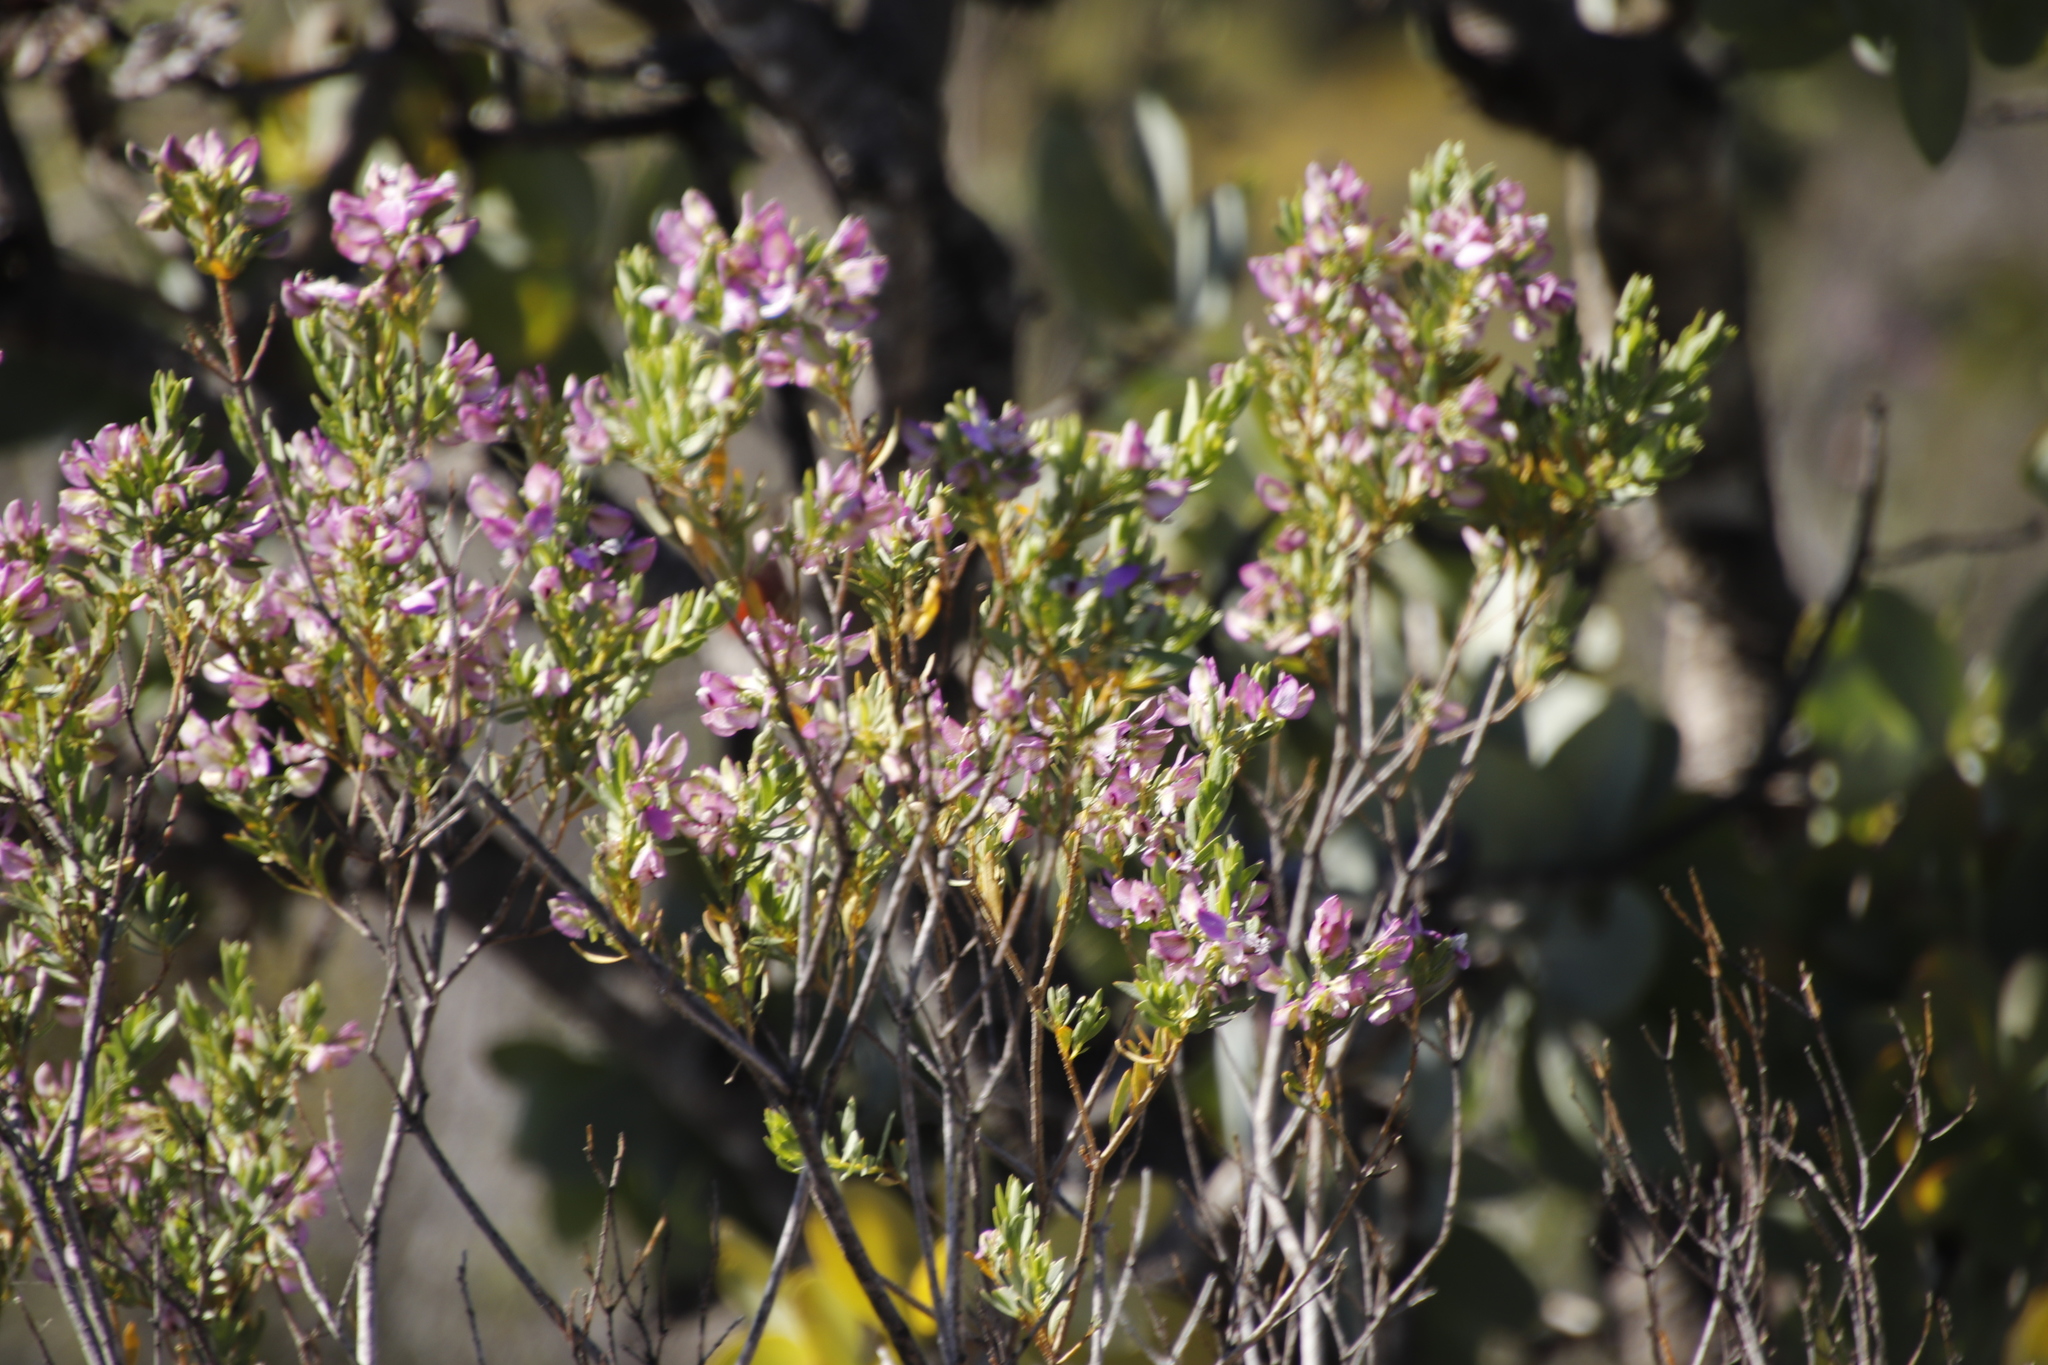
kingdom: Plantae
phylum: Tracheophyta
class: Magnoliopsida
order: Fabales
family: Polygalaceae
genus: Polygala
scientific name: Polygala myrtifolia
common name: Myrtle-leaf milkwort
